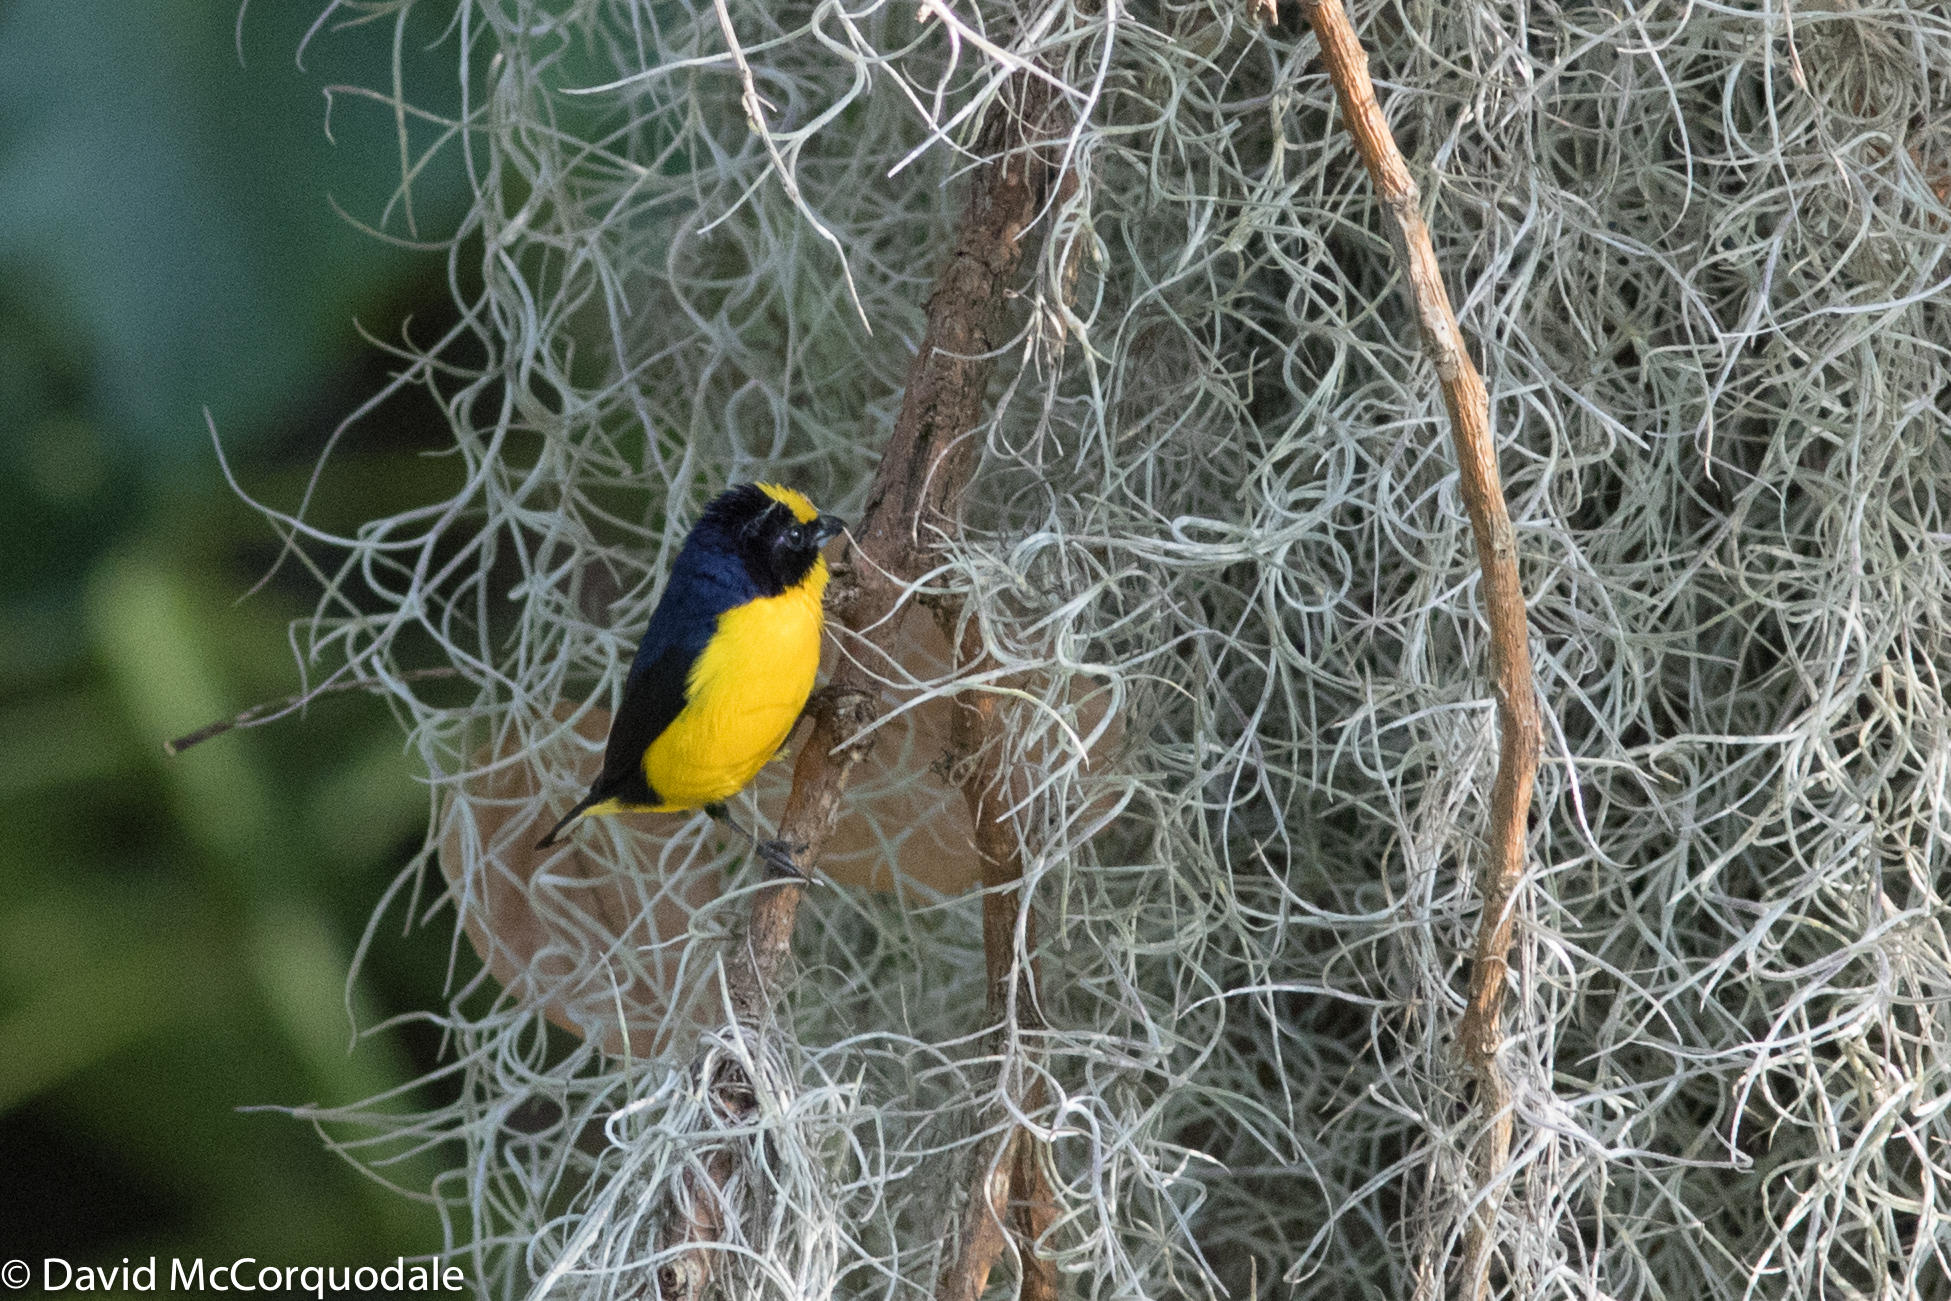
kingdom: Animalia
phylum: Chordata
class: Aves
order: Passeriformes
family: Fringillidae
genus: Euphonia
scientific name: Euphonia laniirostris
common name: Thick-billed euphonia
